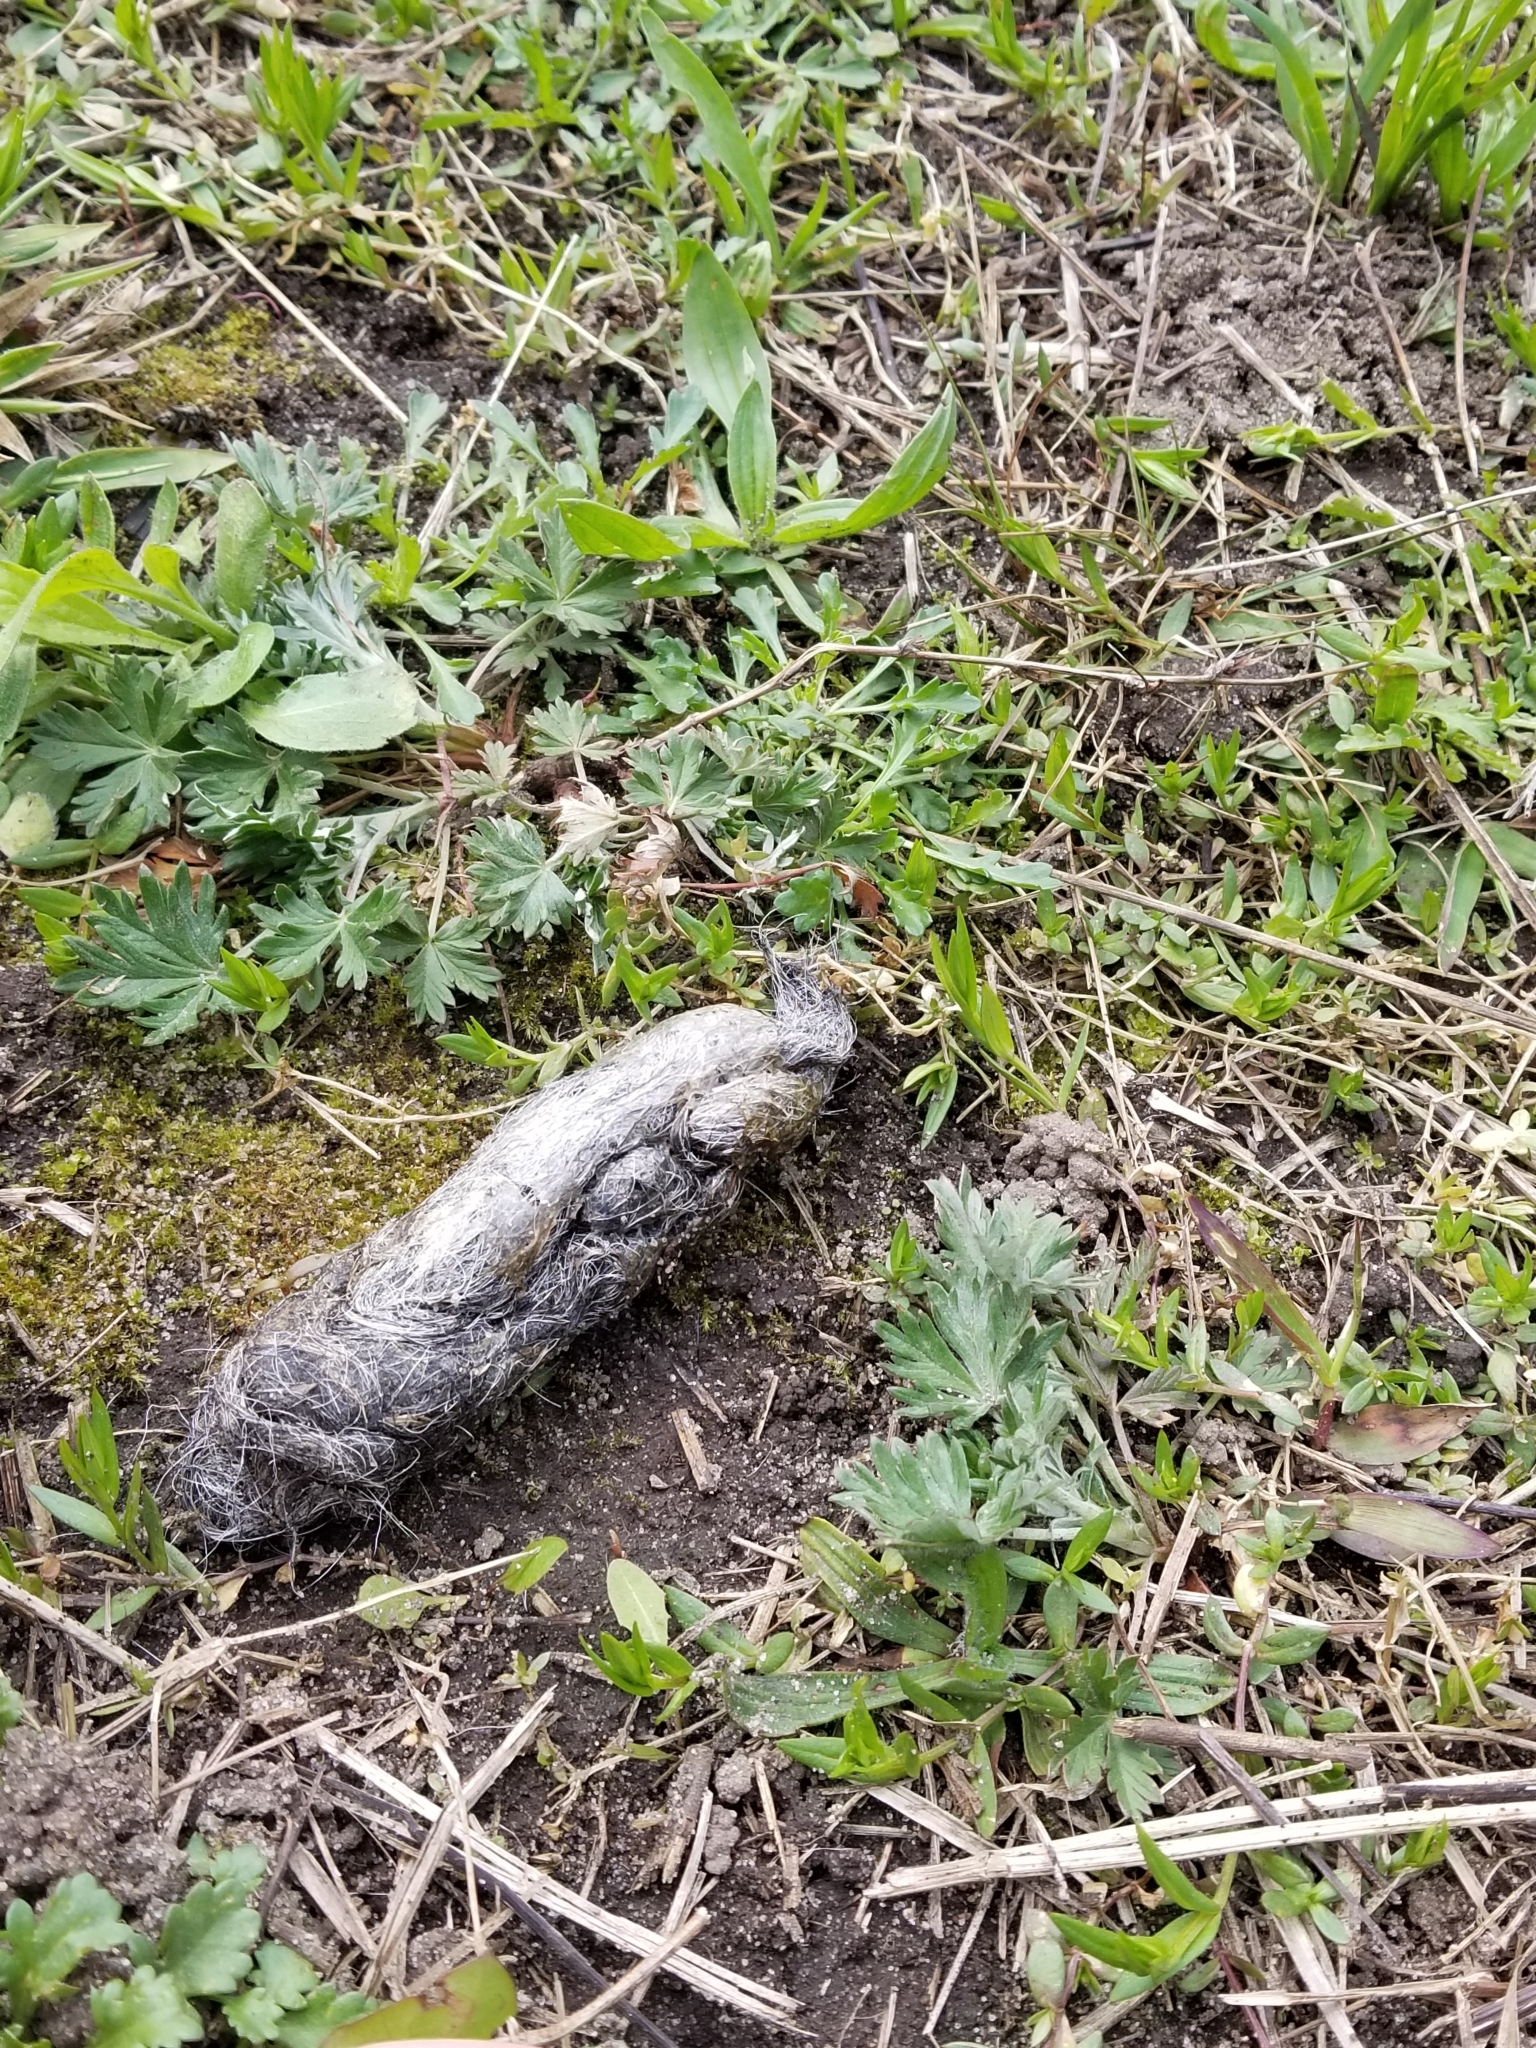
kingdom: Animalia
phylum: Chordata
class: Mammalia
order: Carnivora
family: Canidae
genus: Canis
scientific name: Canis latrans
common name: Coyote
